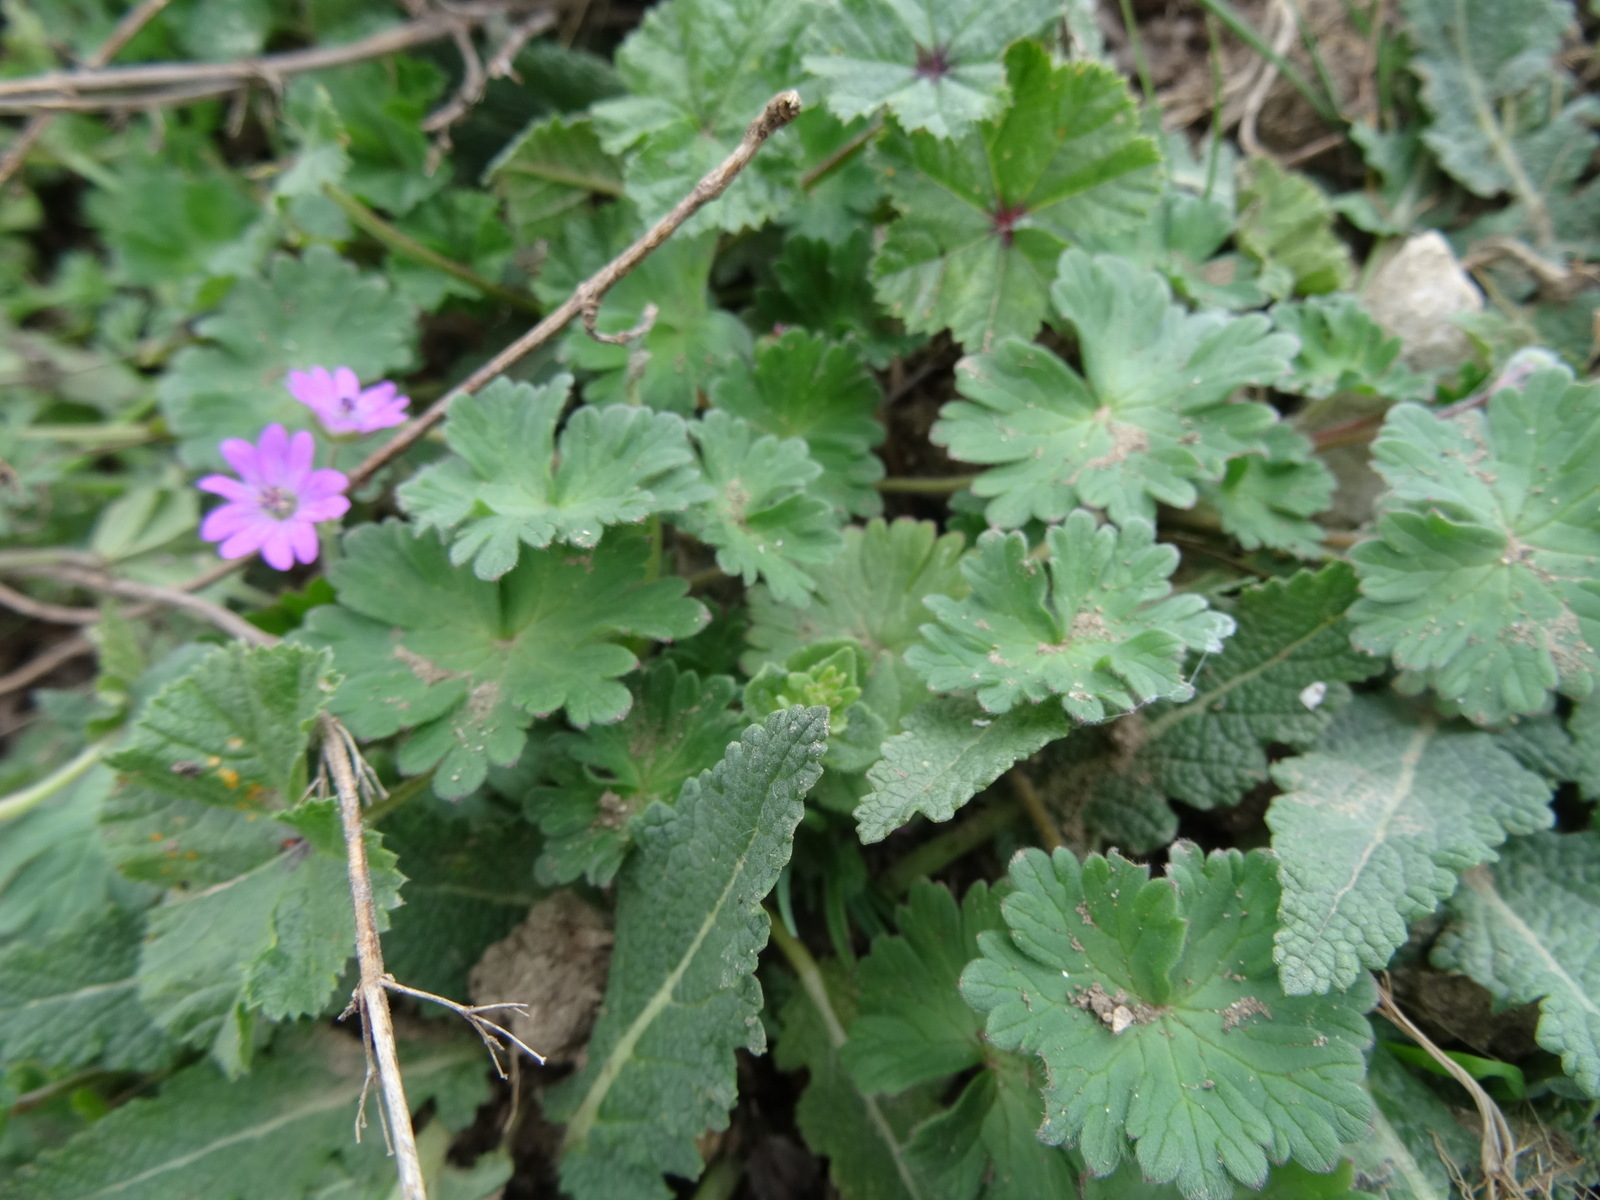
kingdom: Plantae
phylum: Tracheophyta
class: Magnoliopsida
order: Geraniales
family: Geraniaceae
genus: Geranium
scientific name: Geranium molle
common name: Dove's-foot crane's-bill
